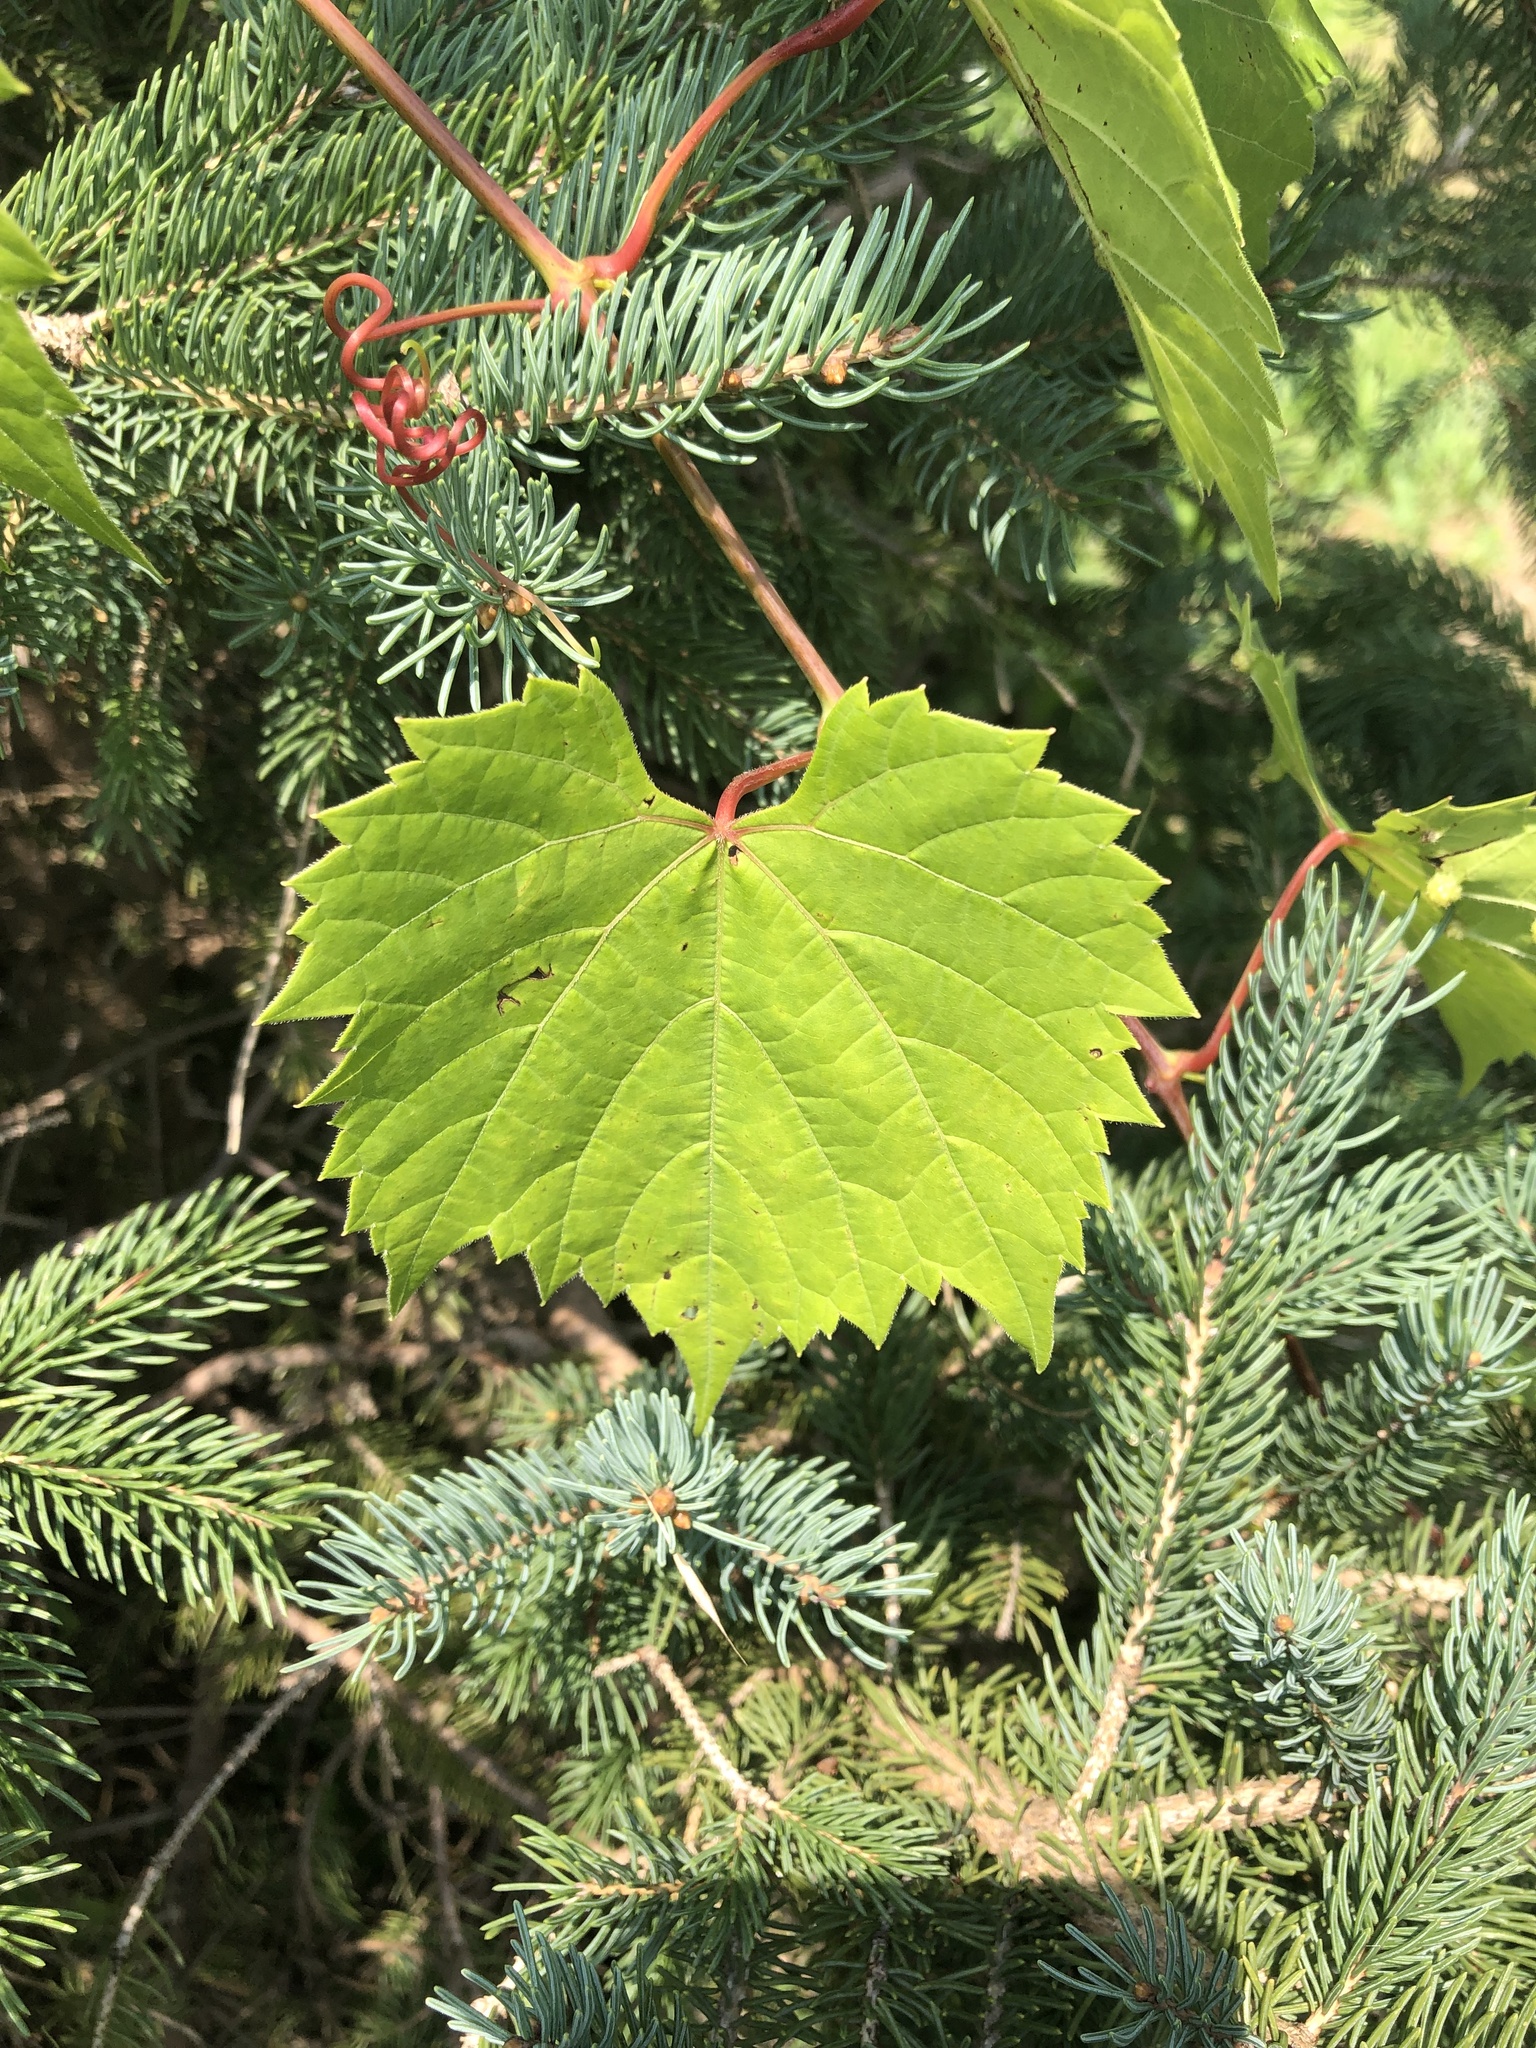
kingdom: Plantae
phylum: Tracheophyta
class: Magnoliopsida
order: Vitales
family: Vitaceae
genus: Vitis
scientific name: Vitis riparia
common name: Frost grape
